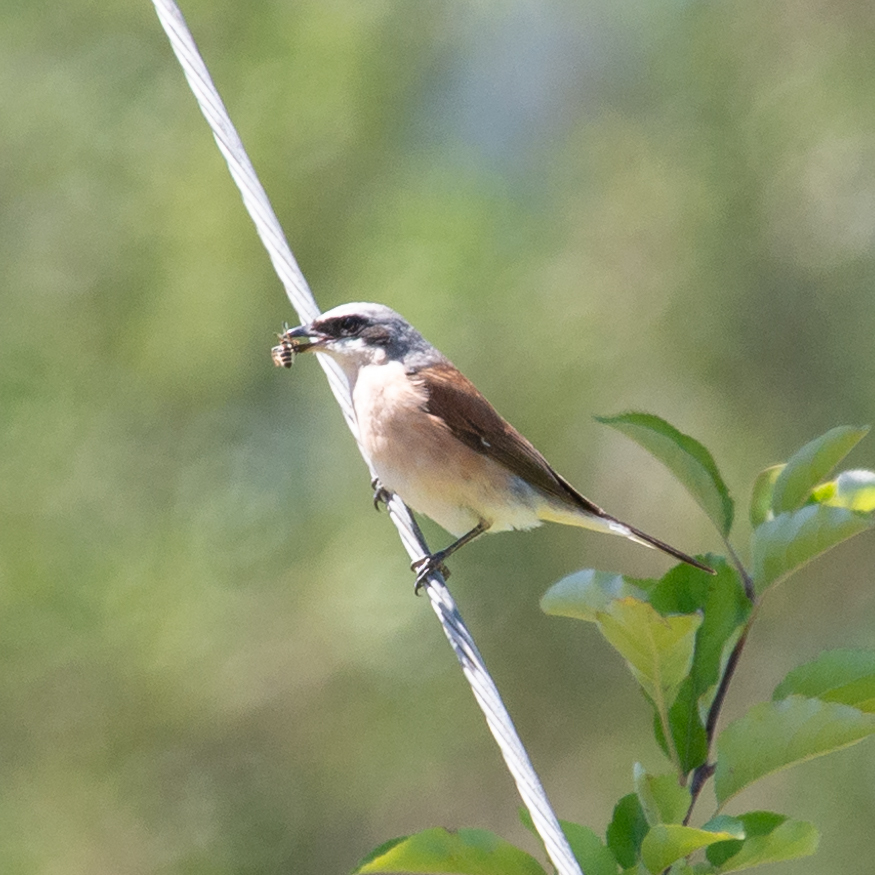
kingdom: Animalia
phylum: Chordata
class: Aves
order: Passeriformes
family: Laniidae
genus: Lanius
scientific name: Lanius collurio
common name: Red-backed shrike
